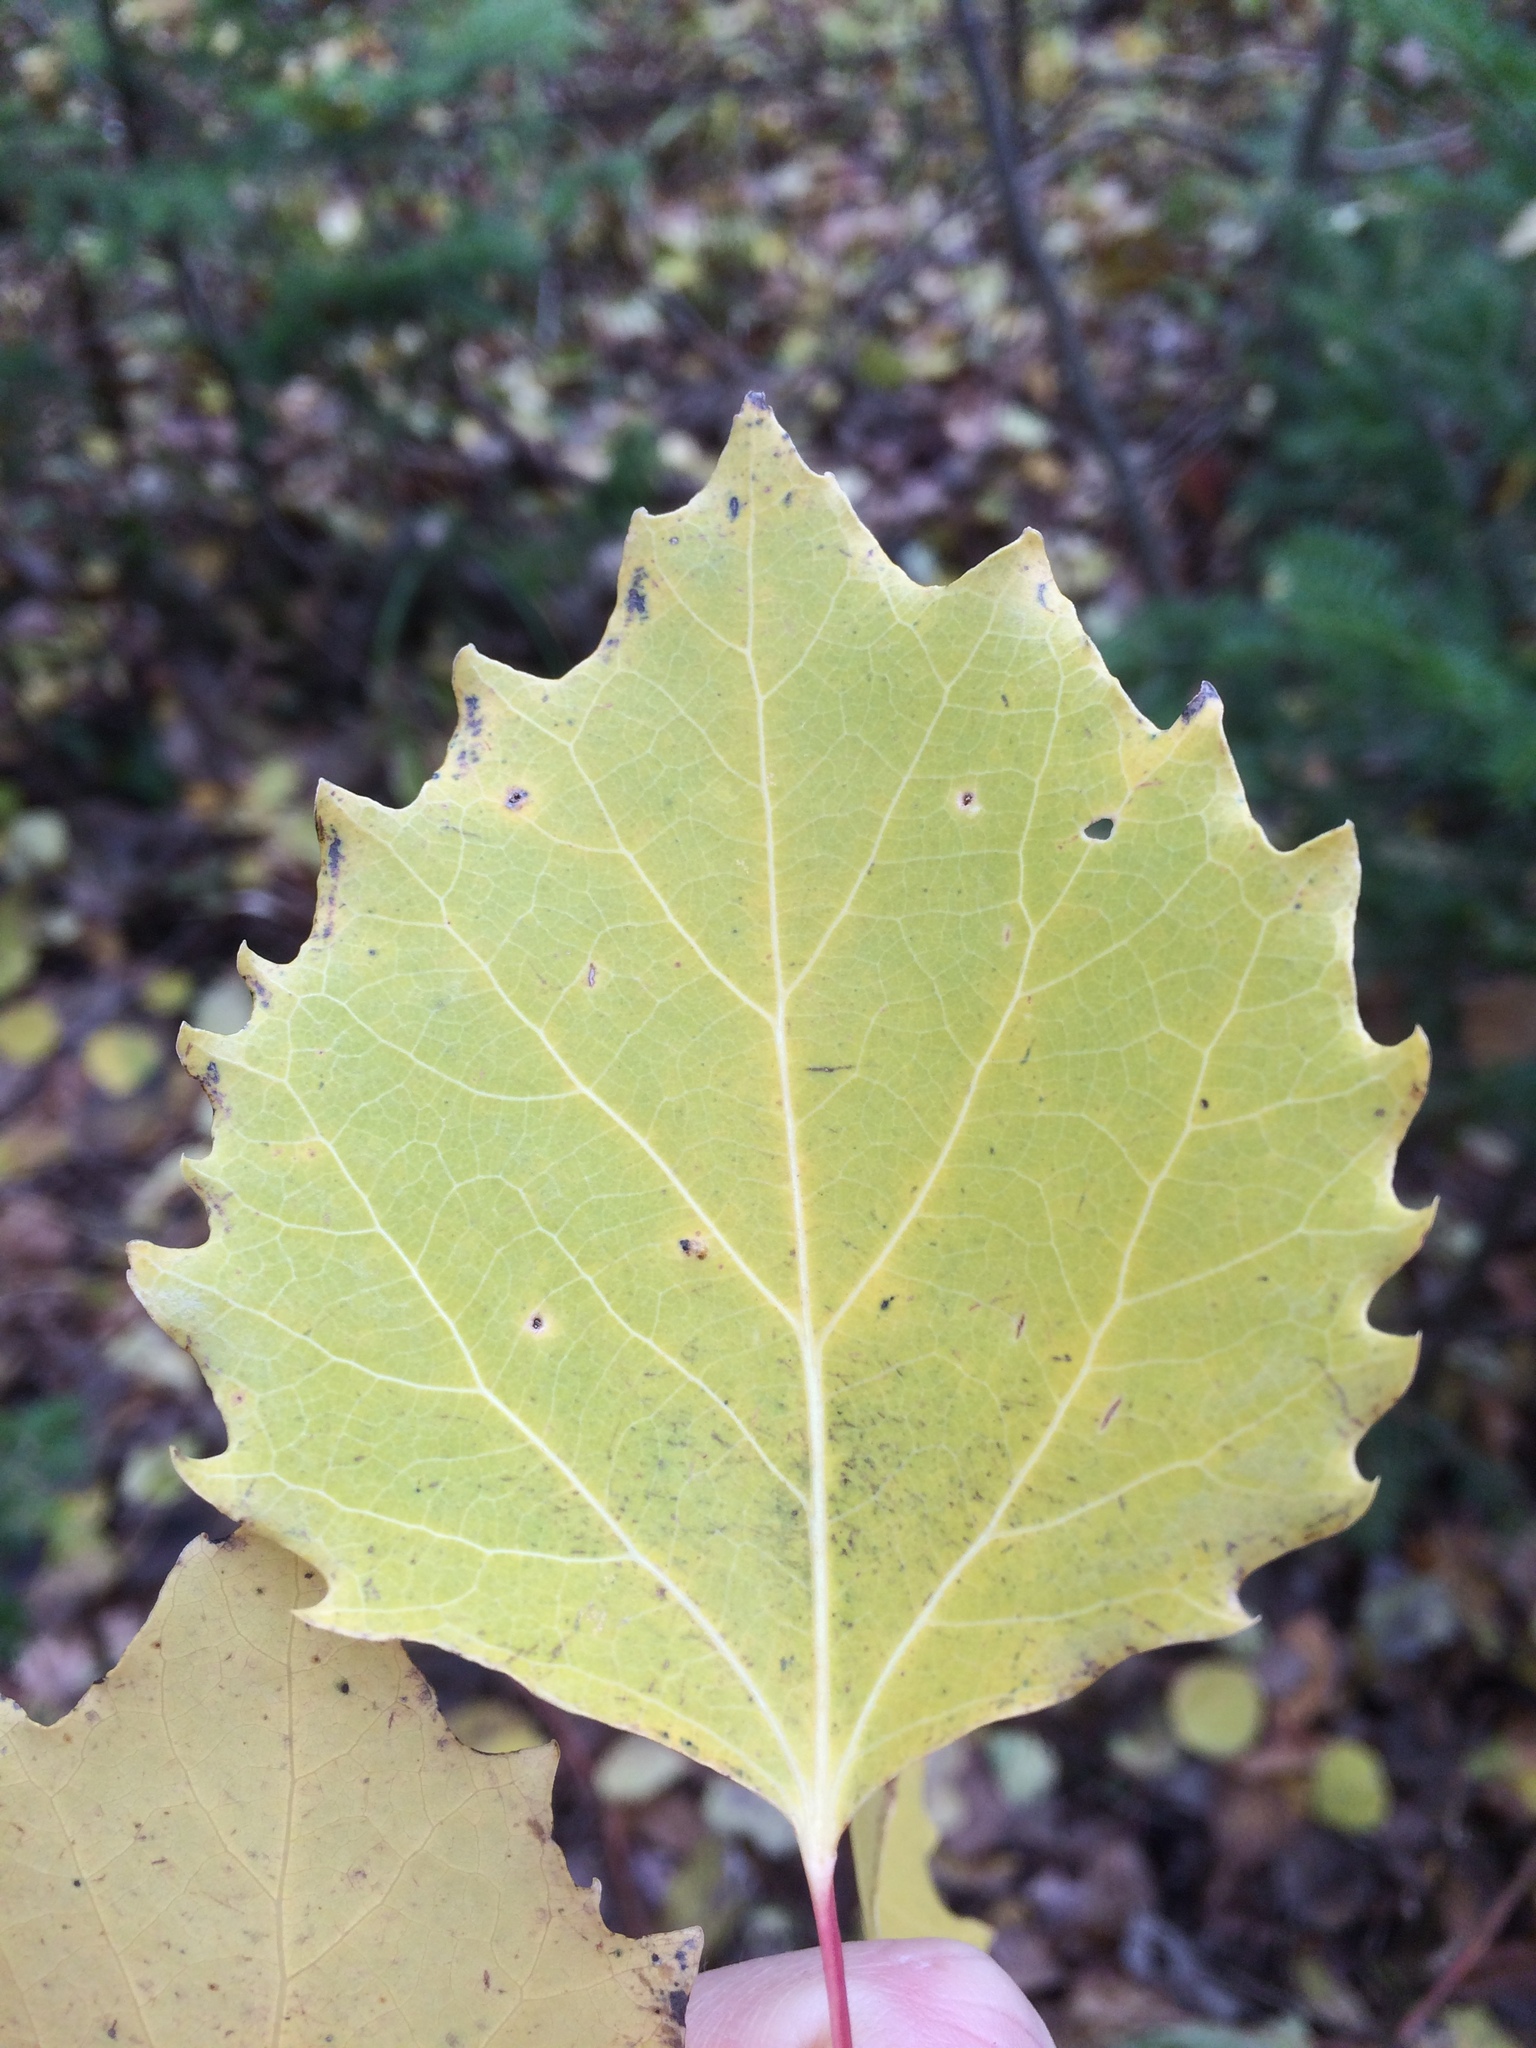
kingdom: Plantae
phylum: Tracheophyta
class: Magnoliopsida
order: Malpighiales
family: Salicaceae
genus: Populus
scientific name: Populus grandidentata
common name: Bigtooth aspen
